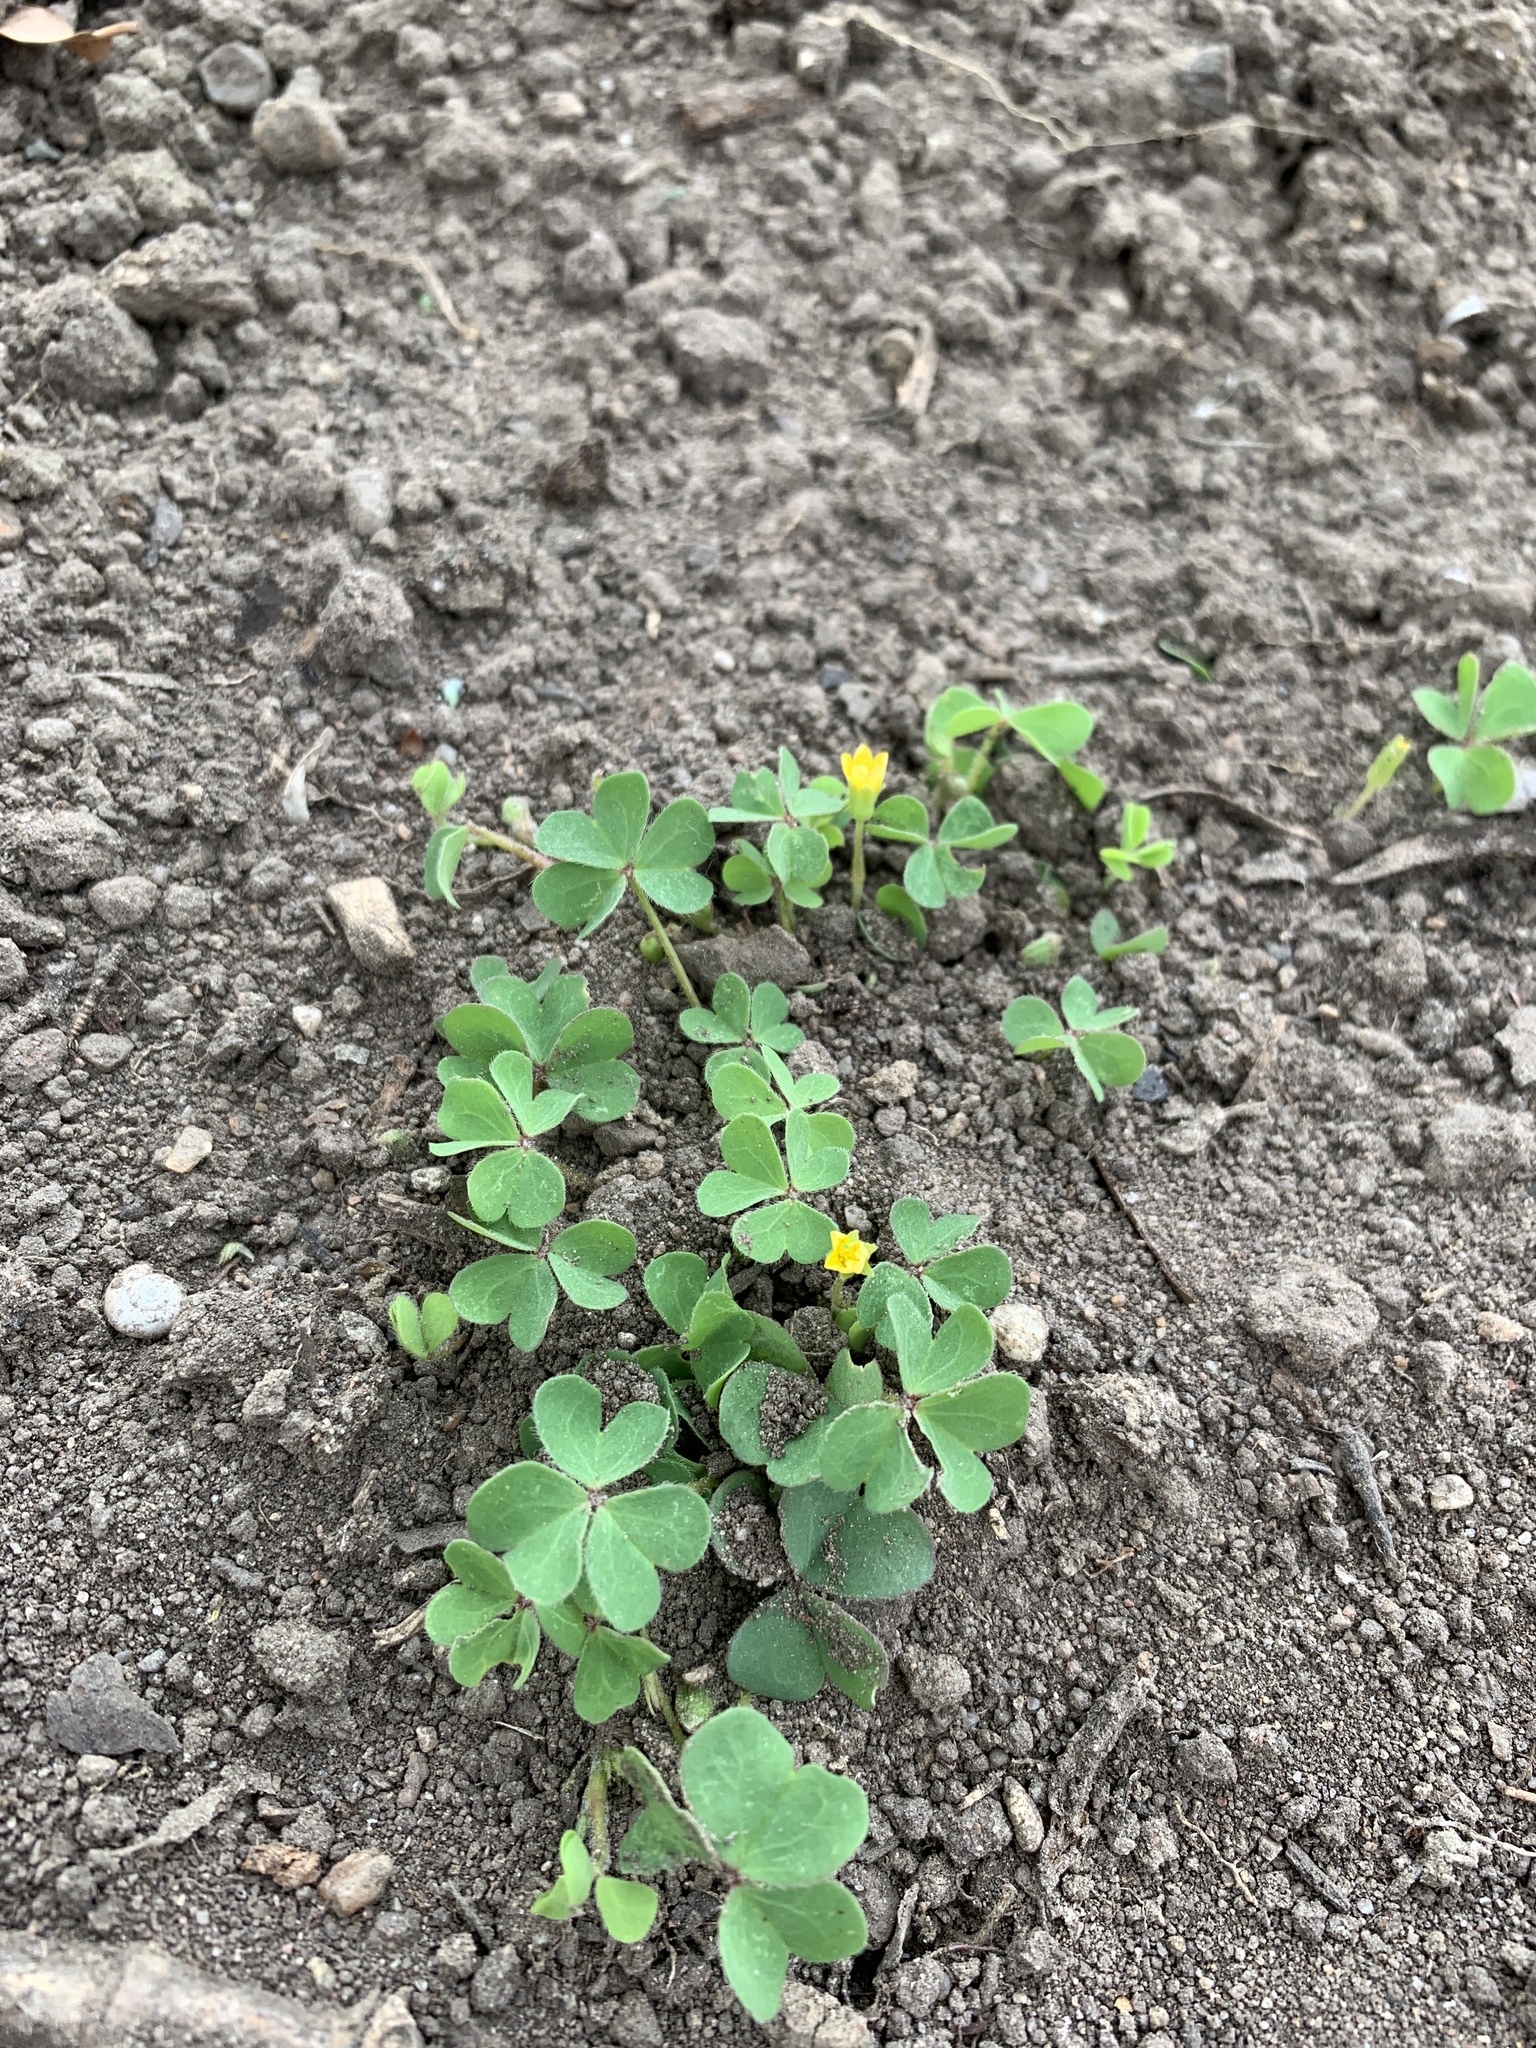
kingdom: Plantae
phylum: Tracheophyta
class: Magnoliopsida
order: Oxalidales
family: Oxalidaceae
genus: Oxalis
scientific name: Oxalis corniculata
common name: Procumbent yellow-sorrel
